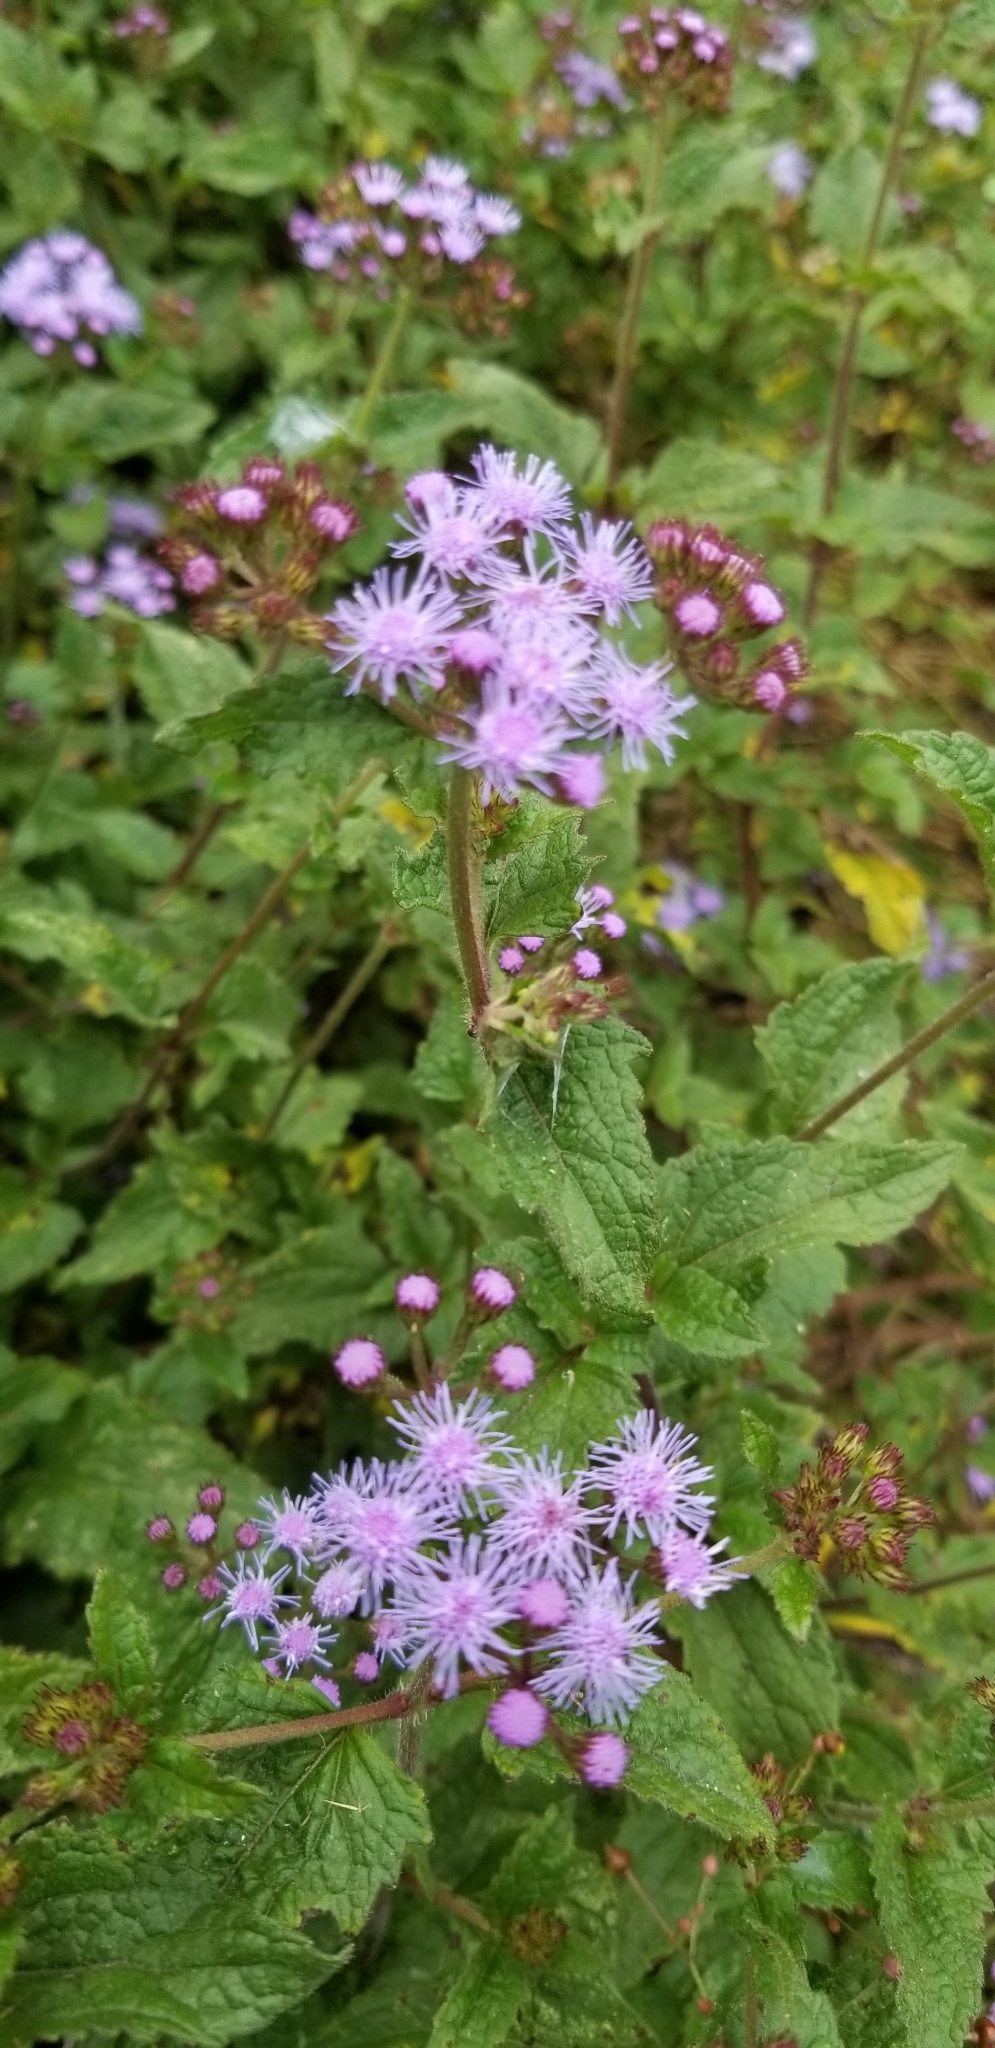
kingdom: Plantae
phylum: Tracheophyta
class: Magnoliopsida
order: Asterales
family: Asteraceae
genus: Conoclinium
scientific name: Conoclinium coelestinum
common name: Blue mistflower
